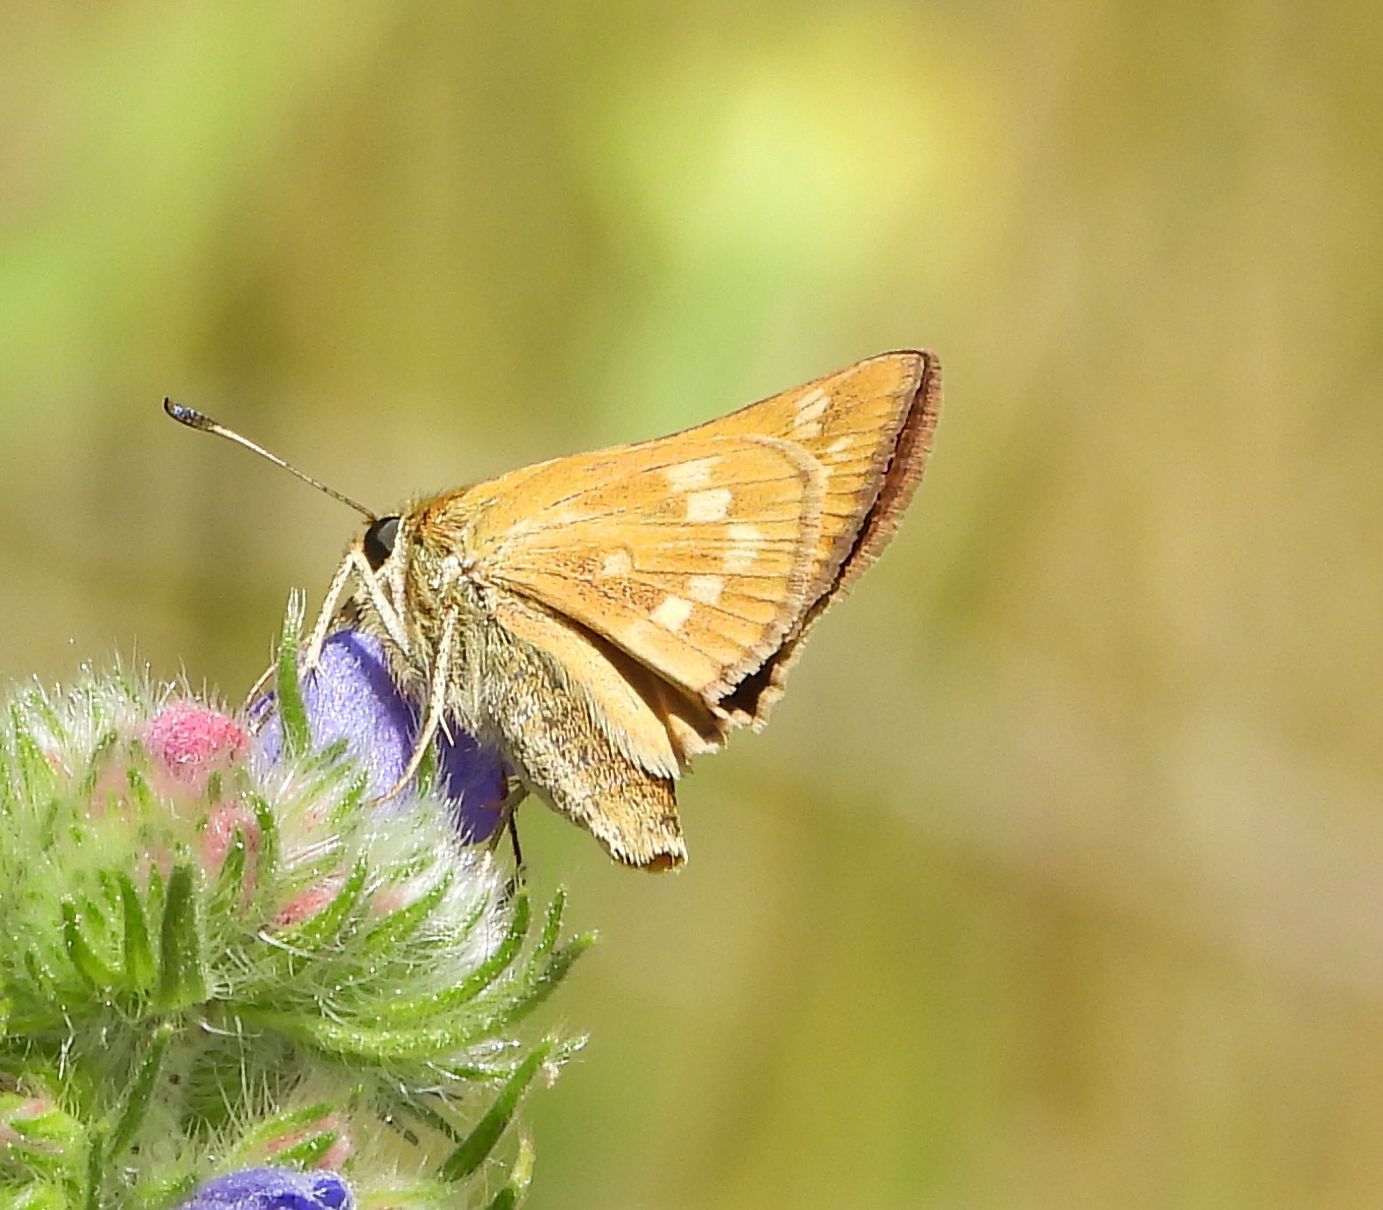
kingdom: Animalia
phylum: Arthropoda
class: Insecta
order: Lepidoptera
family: Hesperiidae
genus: Hesperia
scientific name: Hesperia sassacus
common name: Indian skipper
